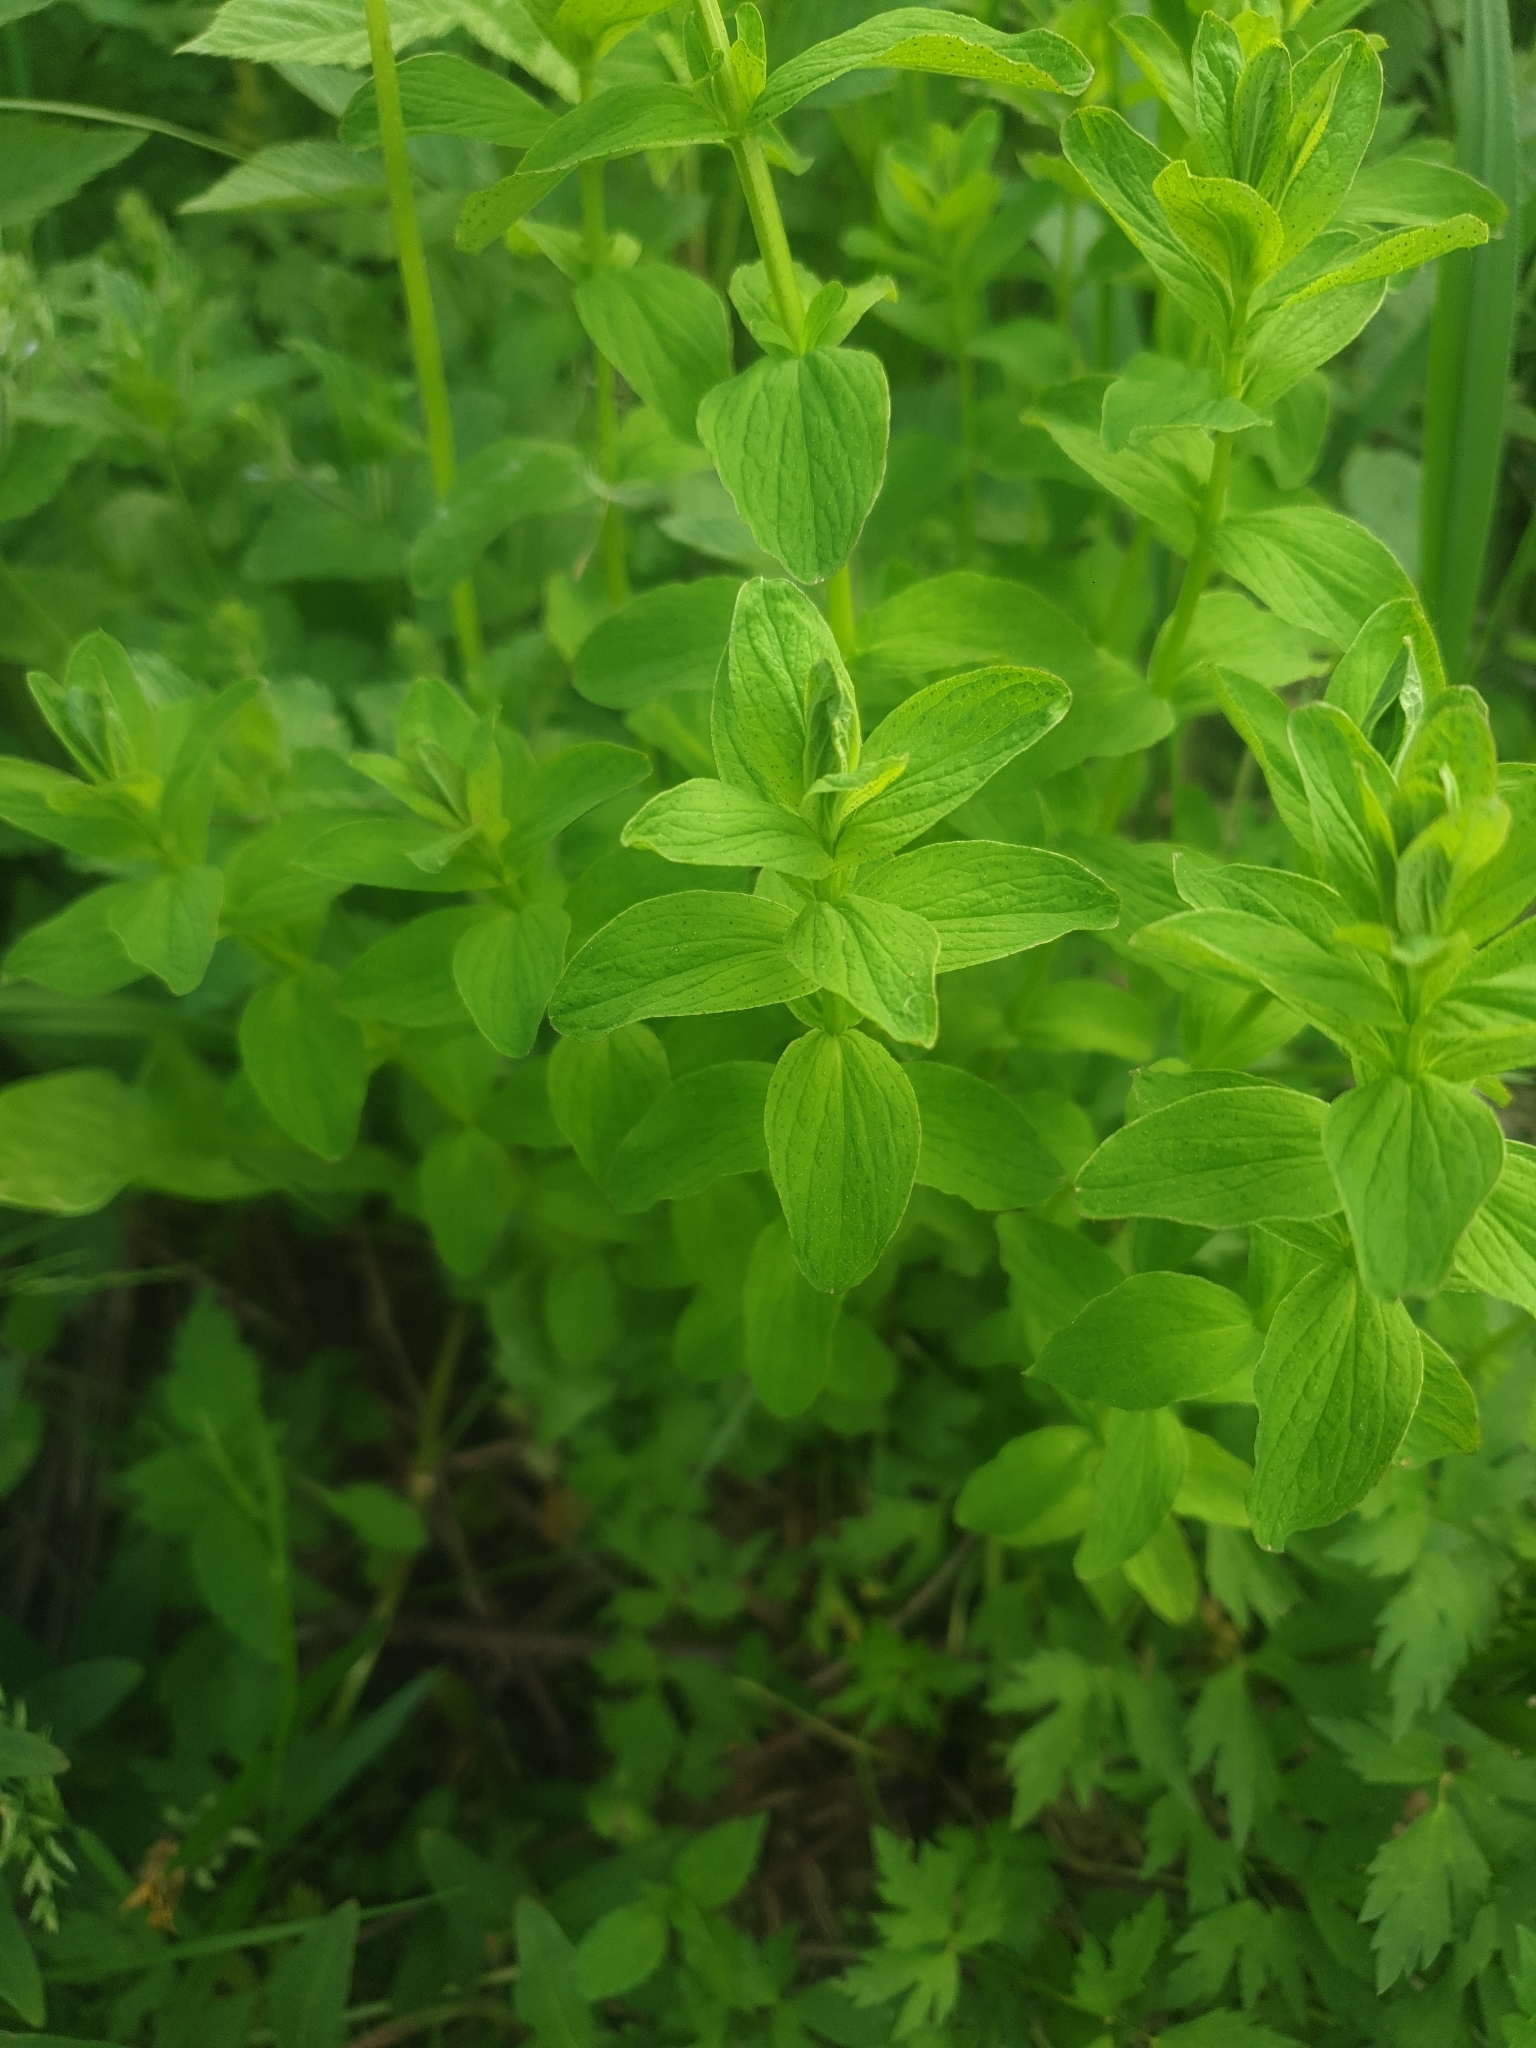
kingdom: Plantae
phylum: Tracheophyta
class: Magnoliopsida
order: Malpighiales
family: Hypericaceae
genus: Hypericum
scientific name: Hypericum maculatum
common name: Imperforate st. john's-wort
